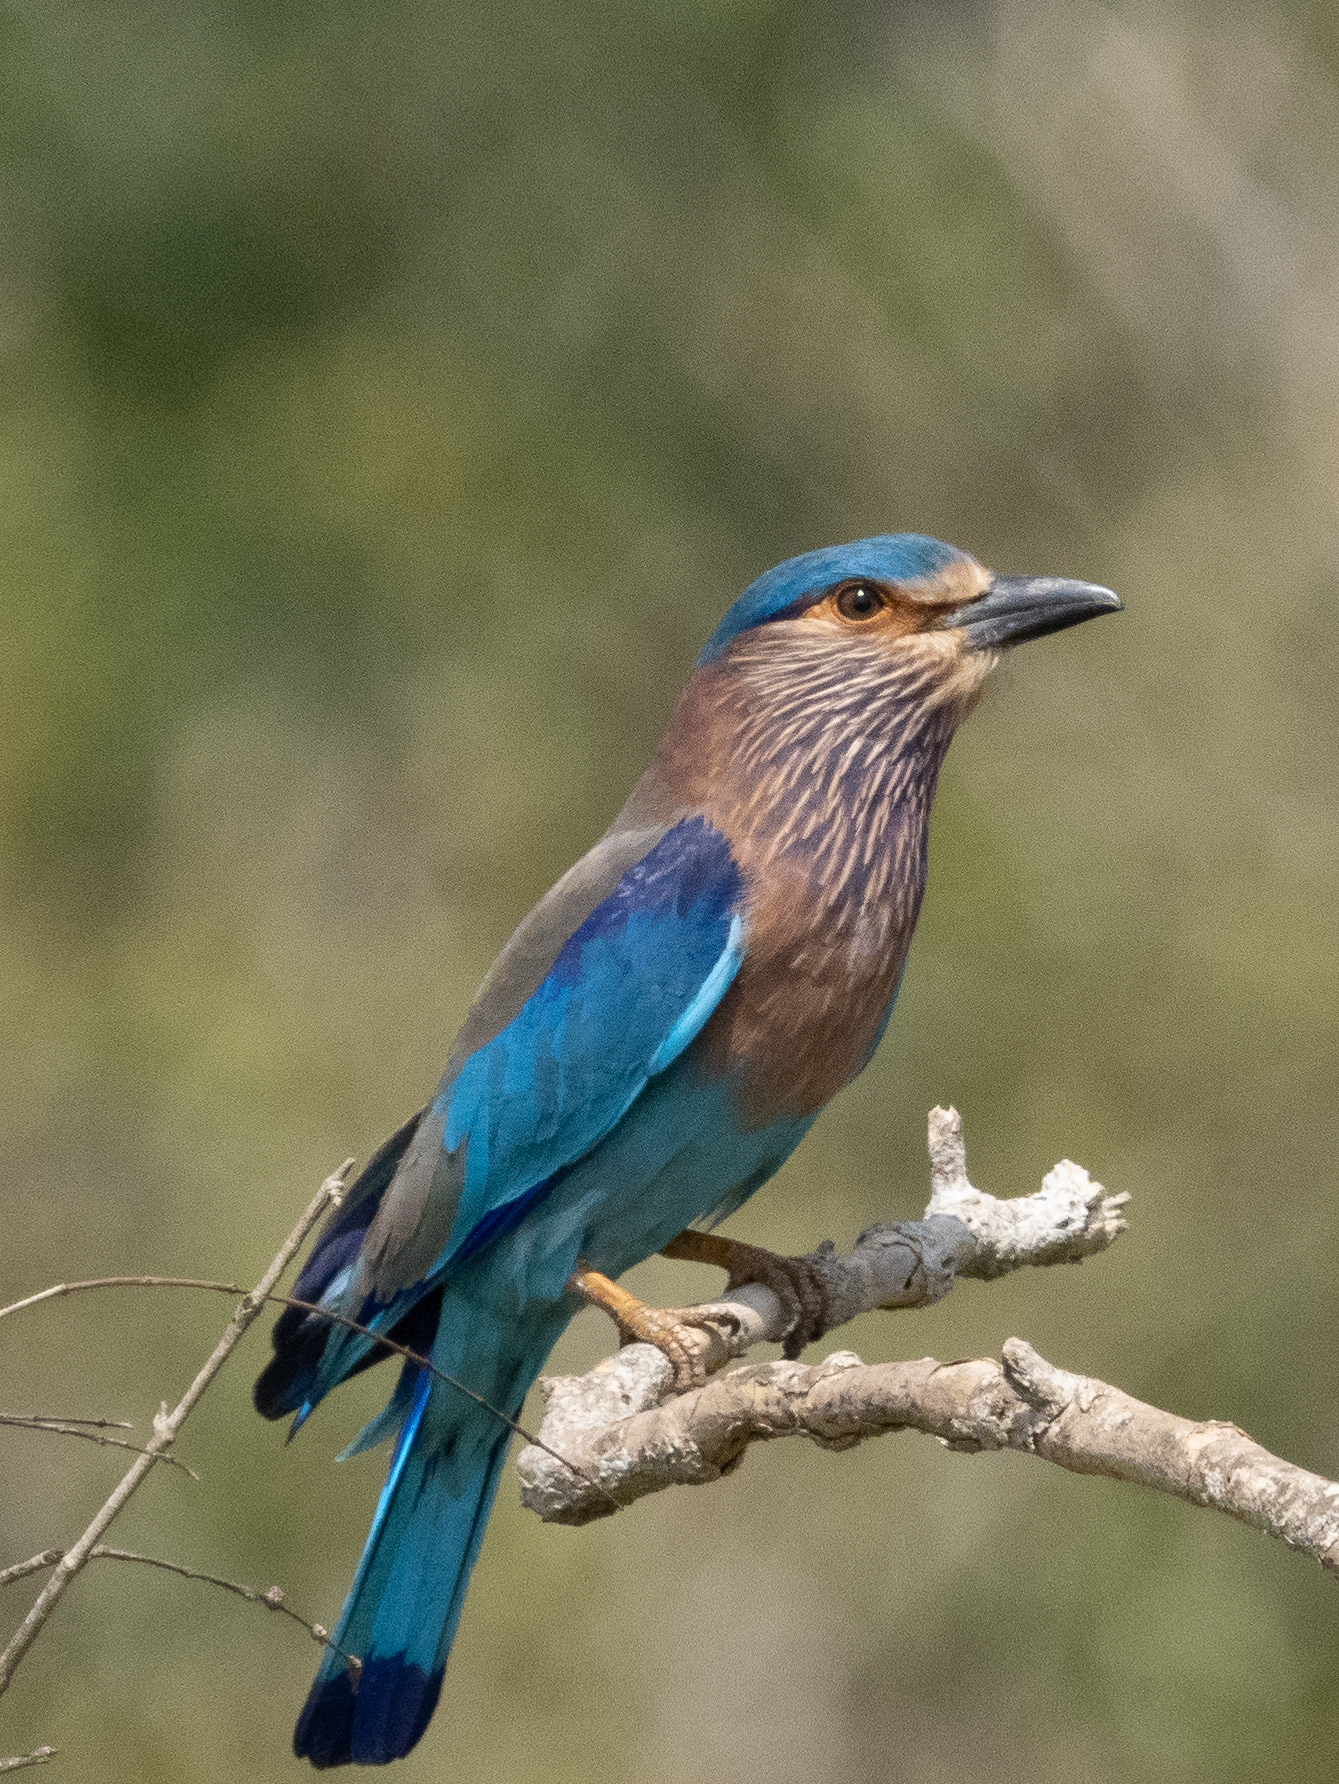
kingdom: Animalia
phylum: Chordata
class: Aves
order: Coraciiformes
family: Coraciidae
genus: Coracias
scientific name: Coracias benghalensis
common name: Indian roller
